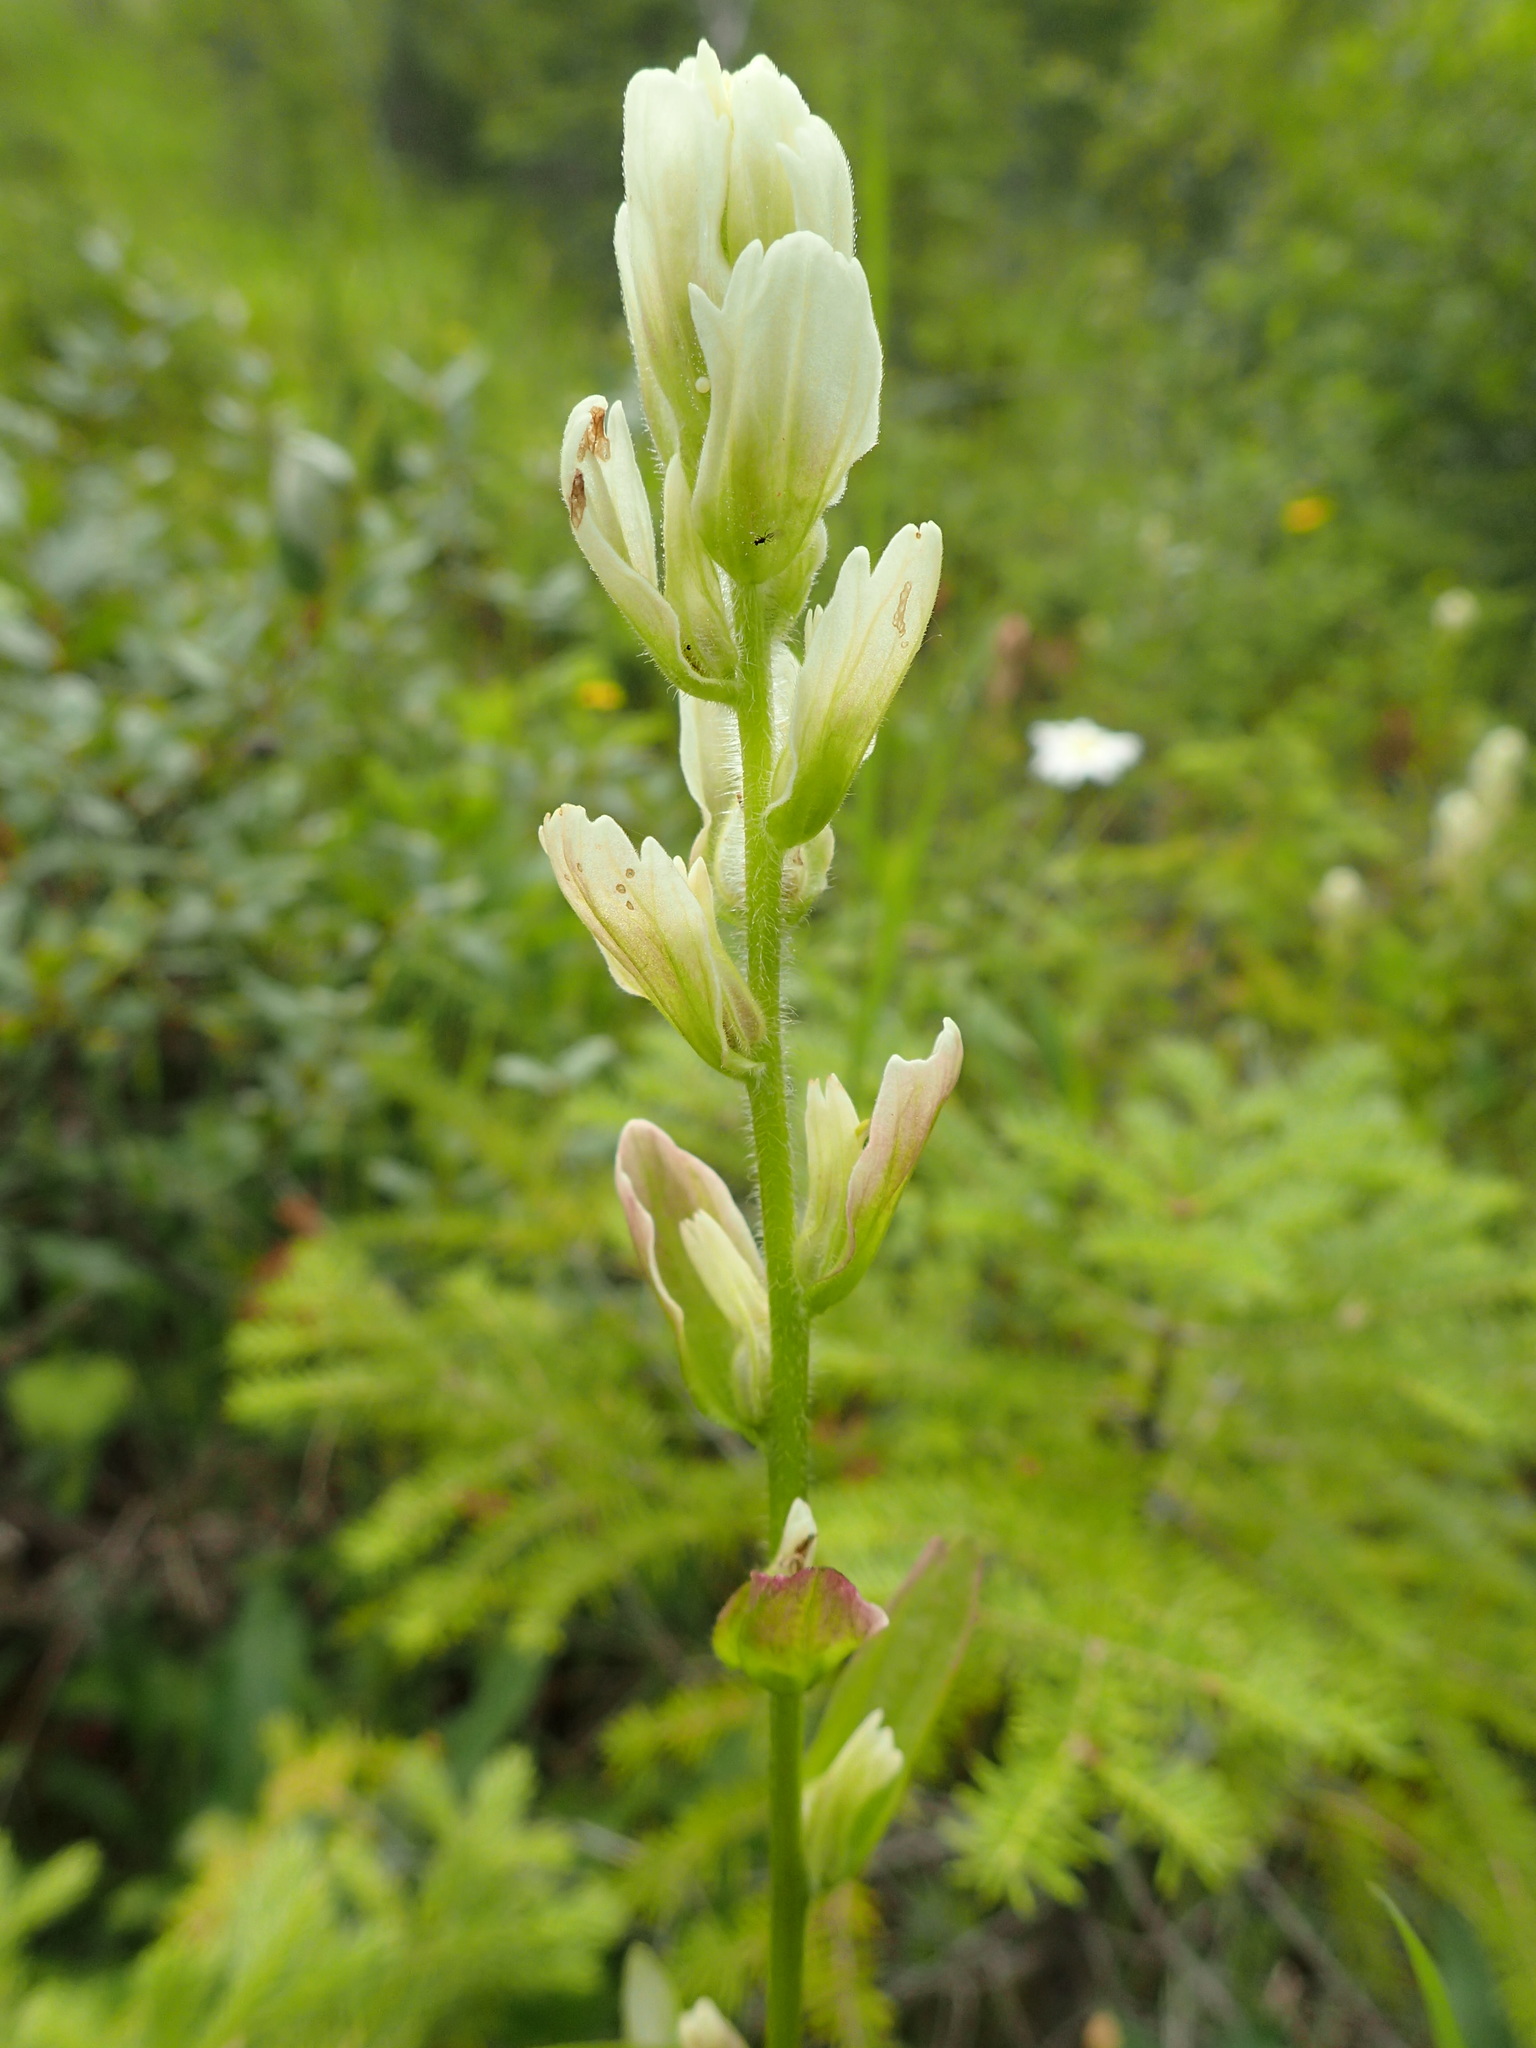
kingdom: Plantae
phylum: Tracheophyta
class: Magnoliopsida
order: Lamiales
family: Orobanchaceae
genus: Castilleja
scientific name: Castilleja septentrionalis
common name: Northeastern paintbrush
